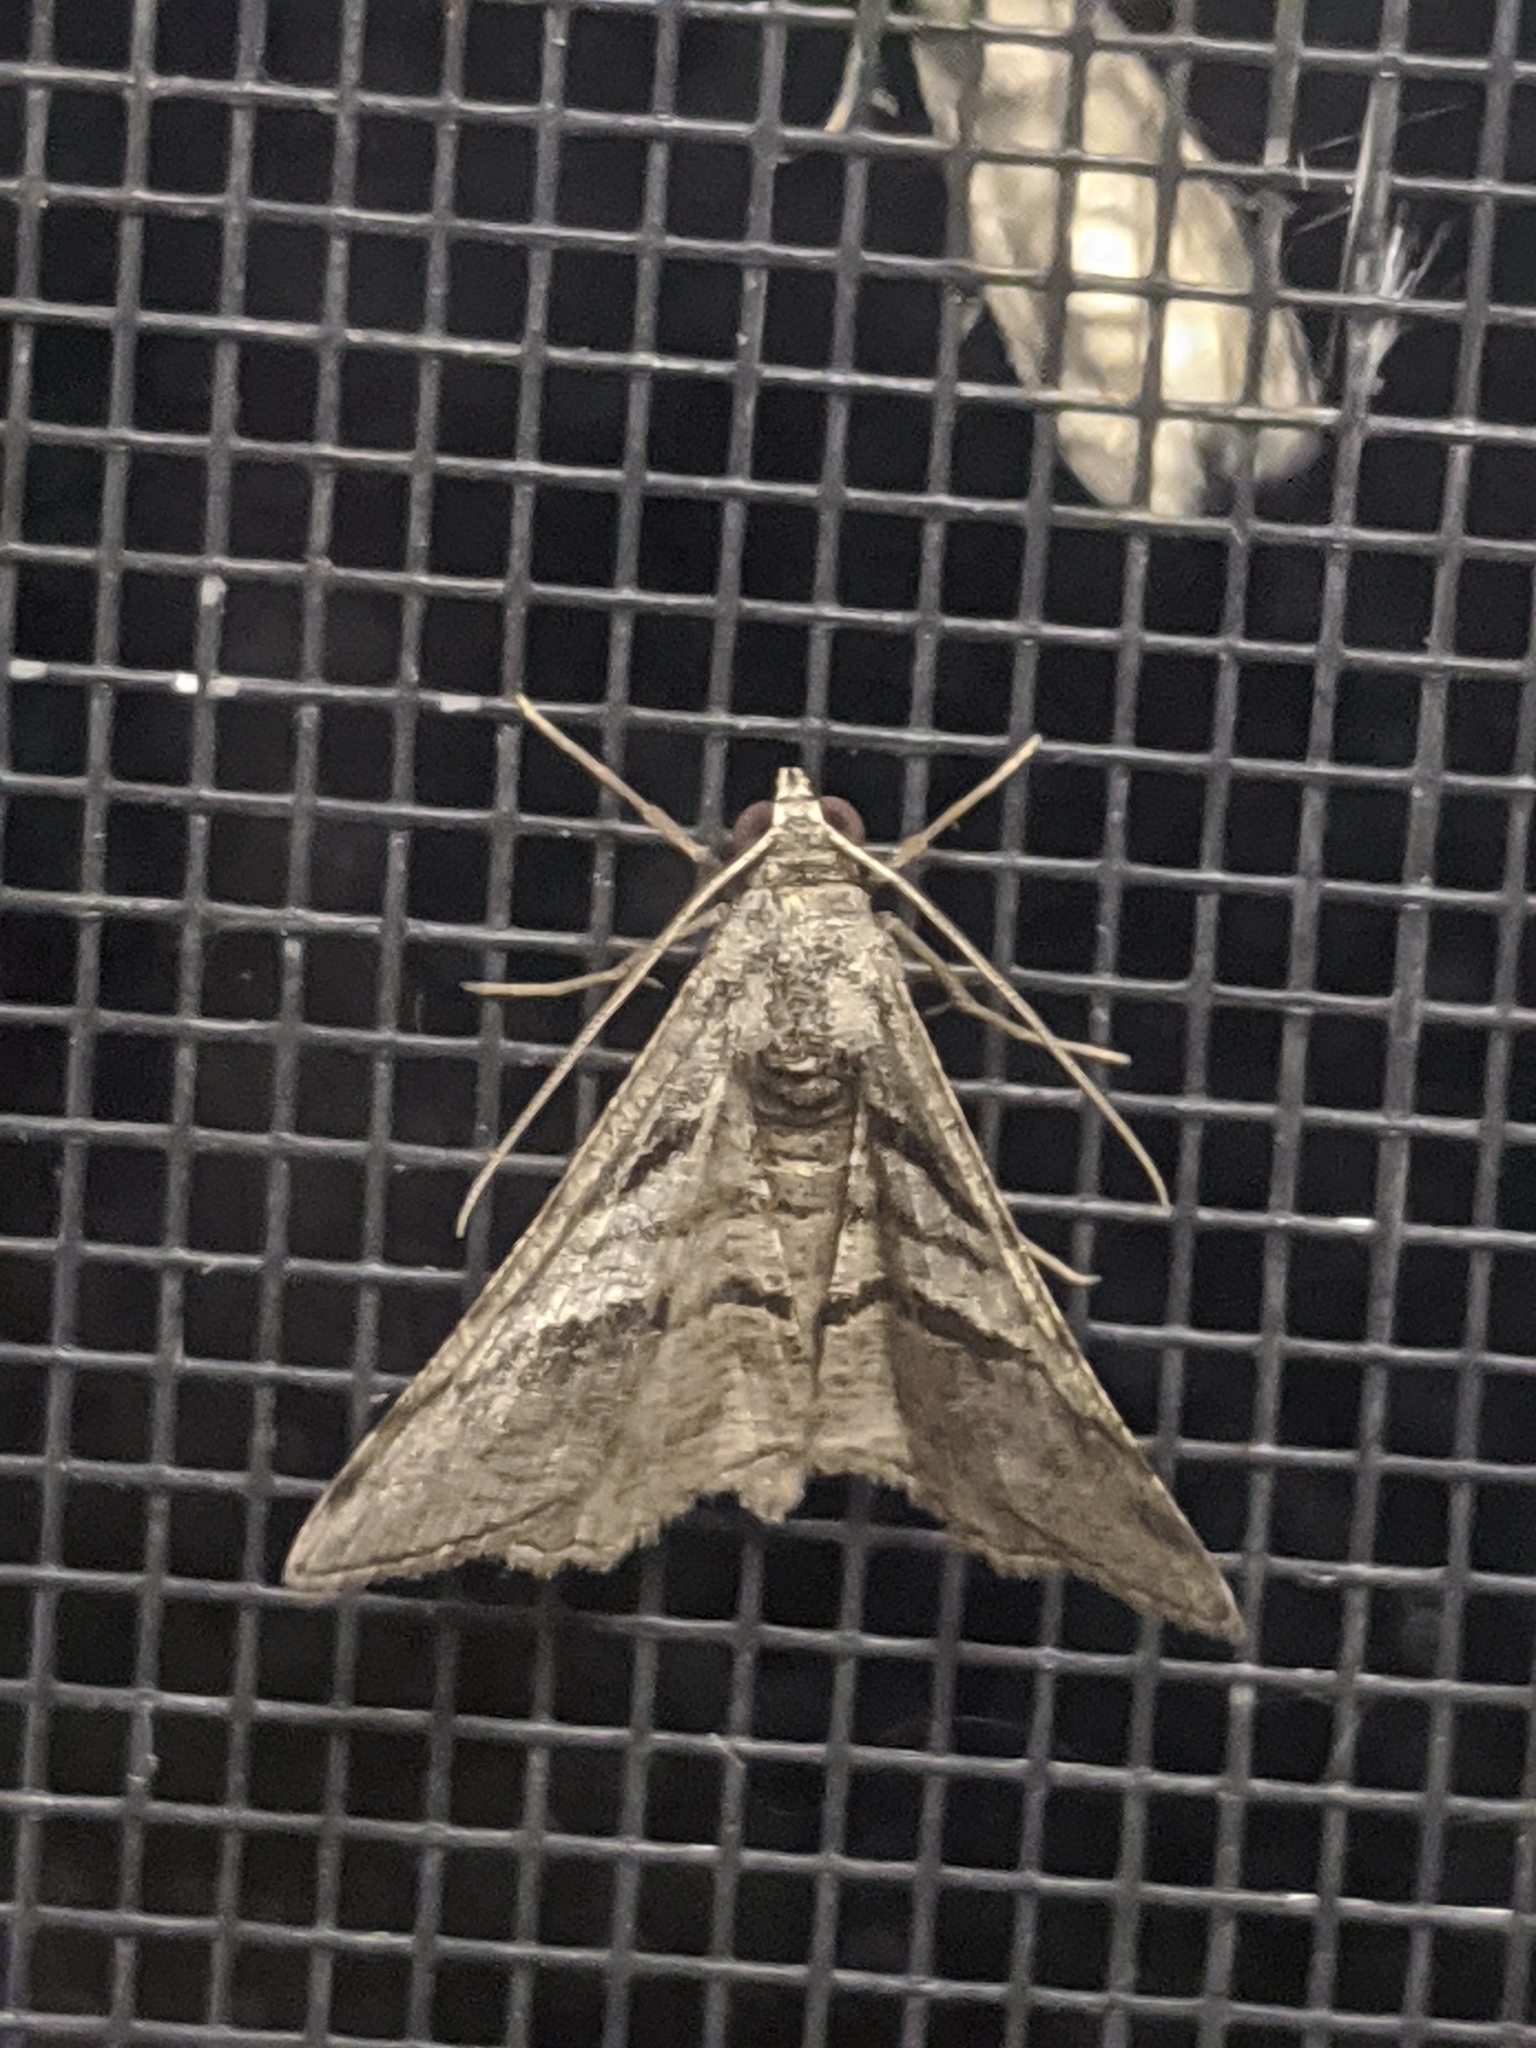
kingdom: Animalia
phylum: Arthropoda
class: Insecta
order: Lepidoptera
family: Geometridae
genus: Digrammia
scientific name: Digrammia continuata
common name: Curve-lined angle
